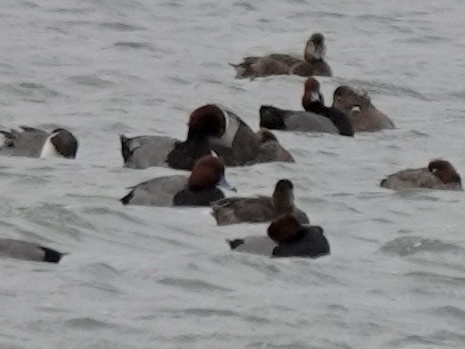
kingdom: Animalia
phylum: Chordata
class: Aves
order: Anseriformes
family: Anatidae
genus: Aythya
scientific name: Aythya americana
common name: Redhead
